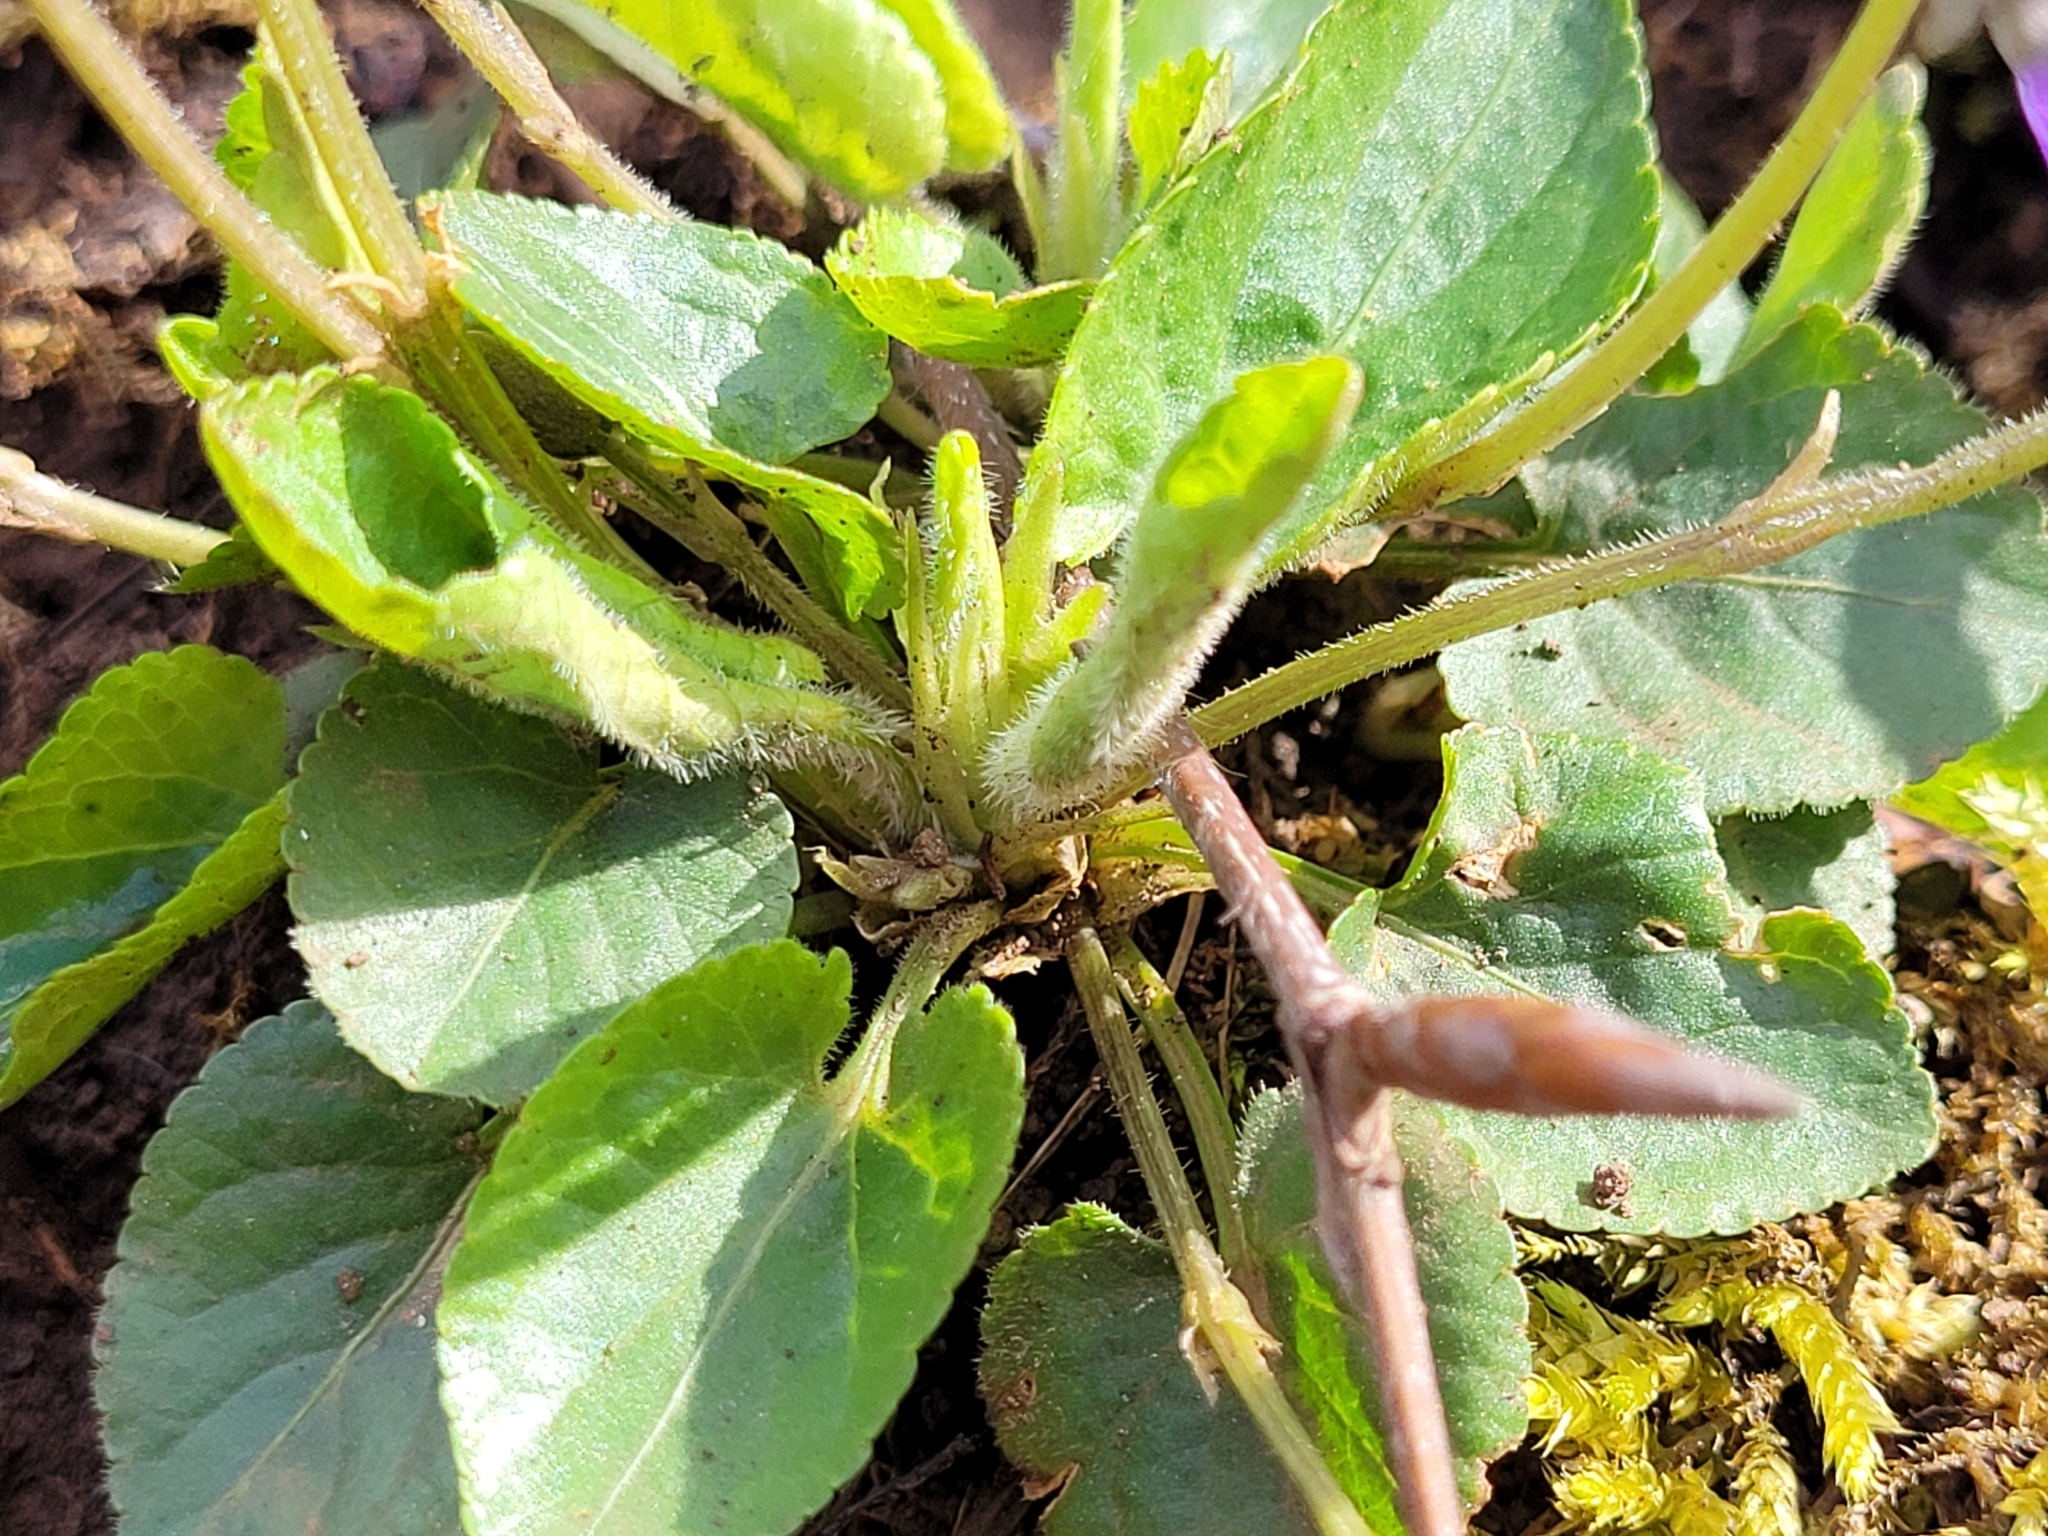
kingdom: Plantae
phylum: Tracheophyta
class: Magnoliopsida
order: Malpighiales
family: Violaceae
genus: Viola
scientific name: Viola hirta
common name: Hairy violet
